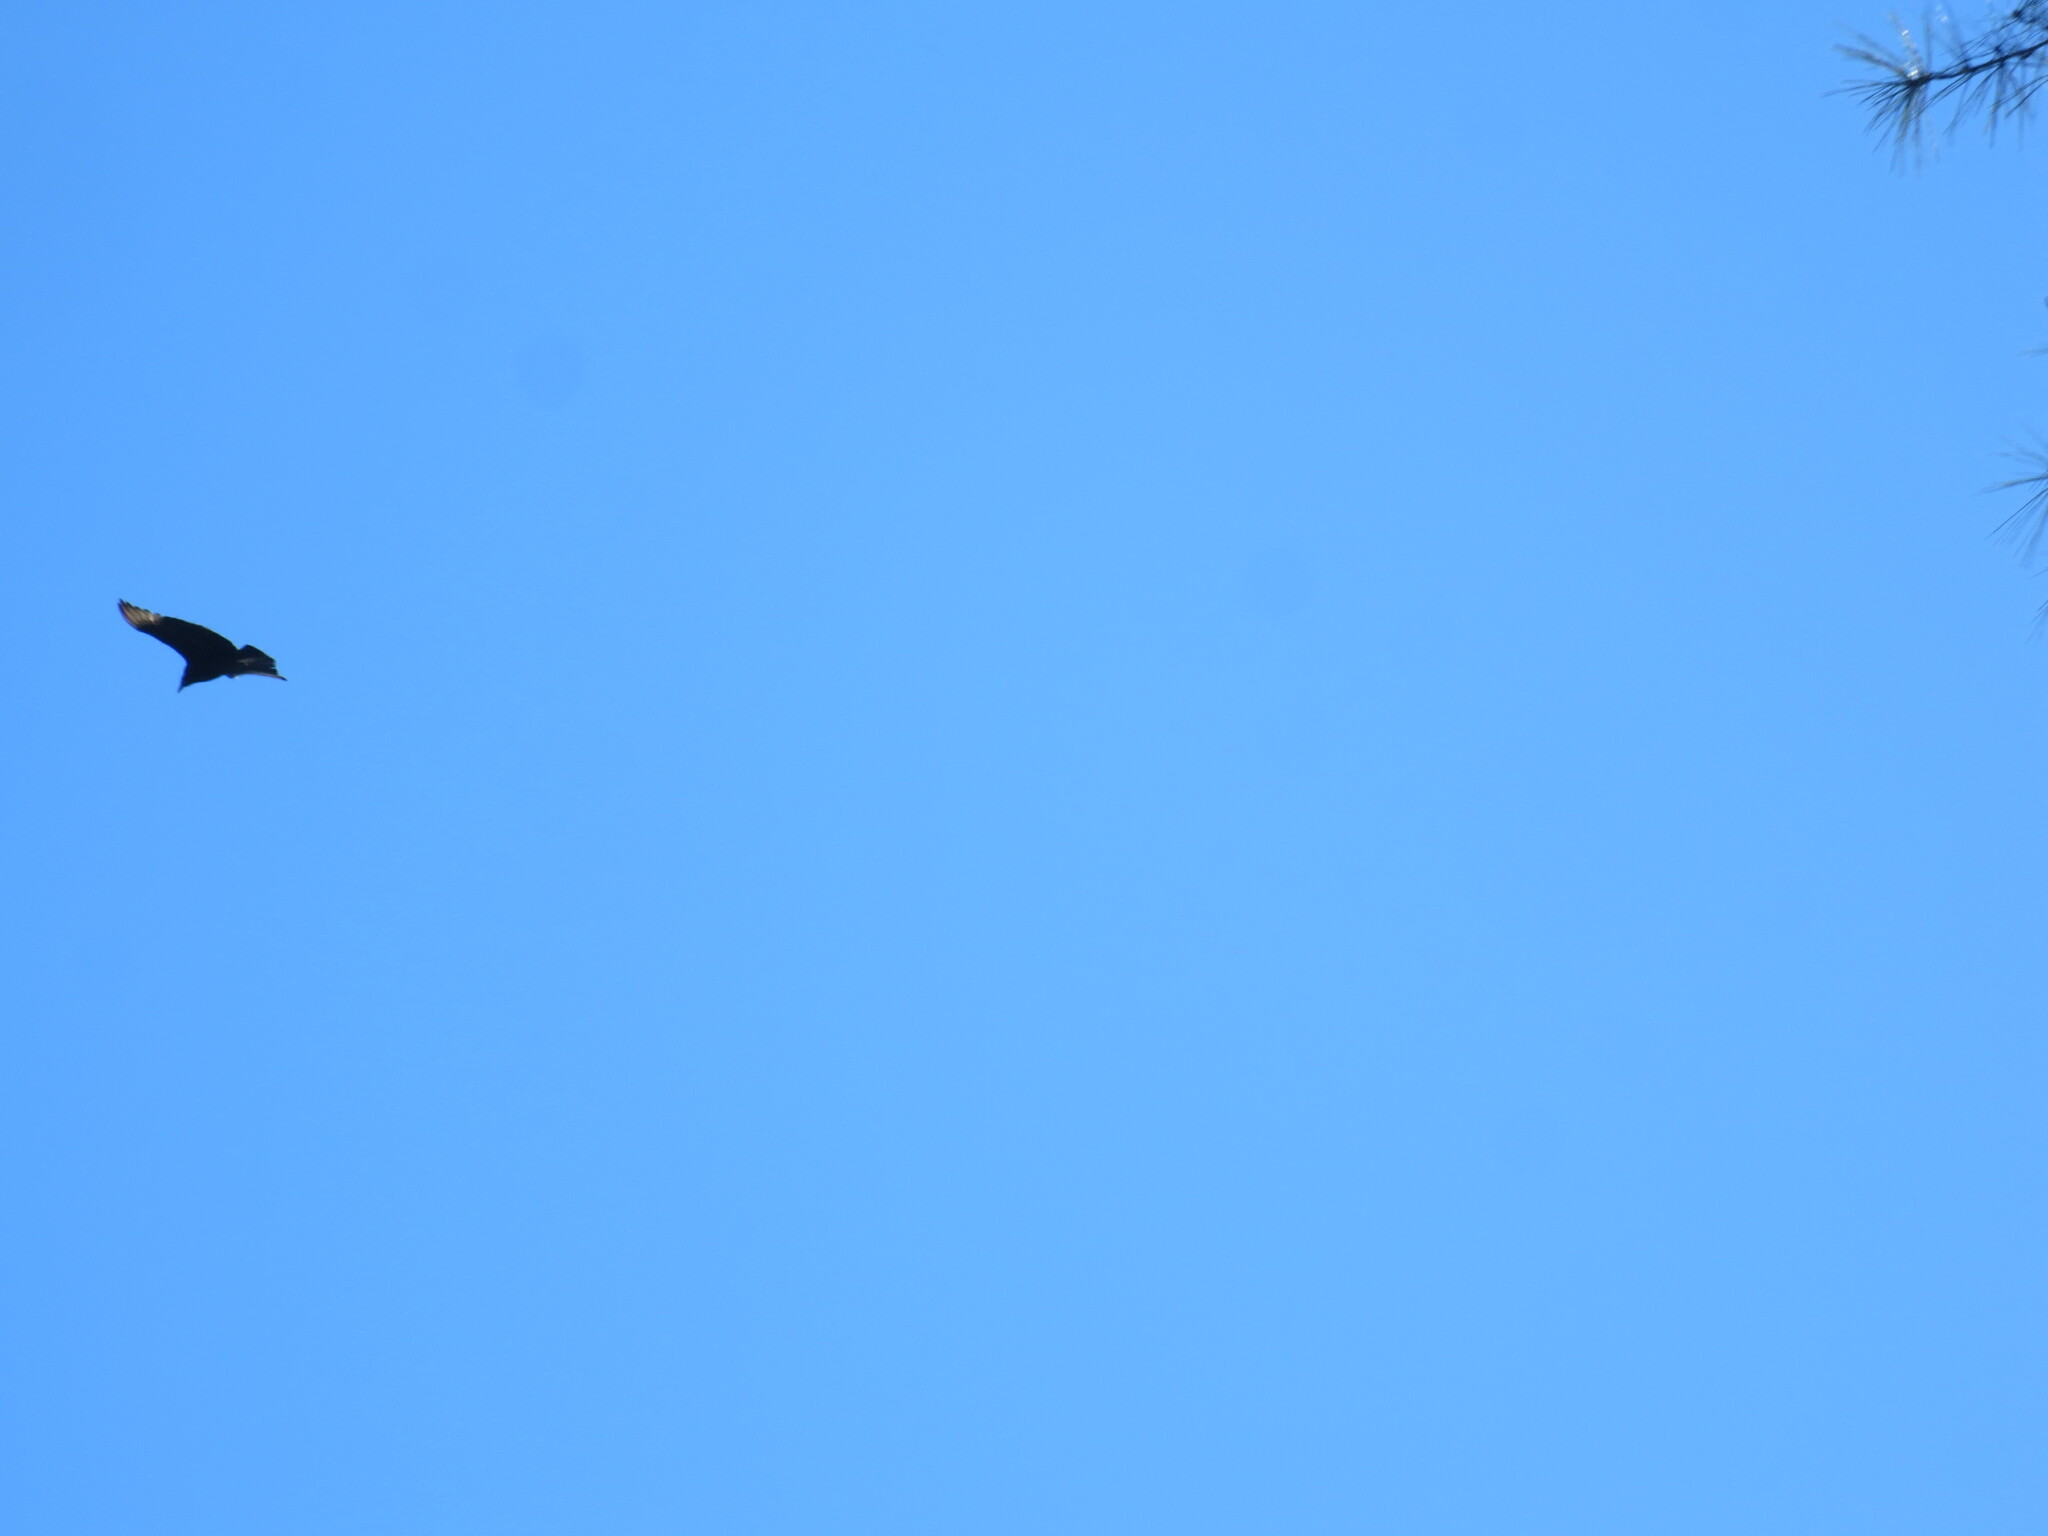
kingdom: Animalia
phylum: Chordata
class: Aves
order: Accipitriformes
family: Cathartidae
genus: Coragyps
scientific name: Coragyps atratus
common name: Black vulture
